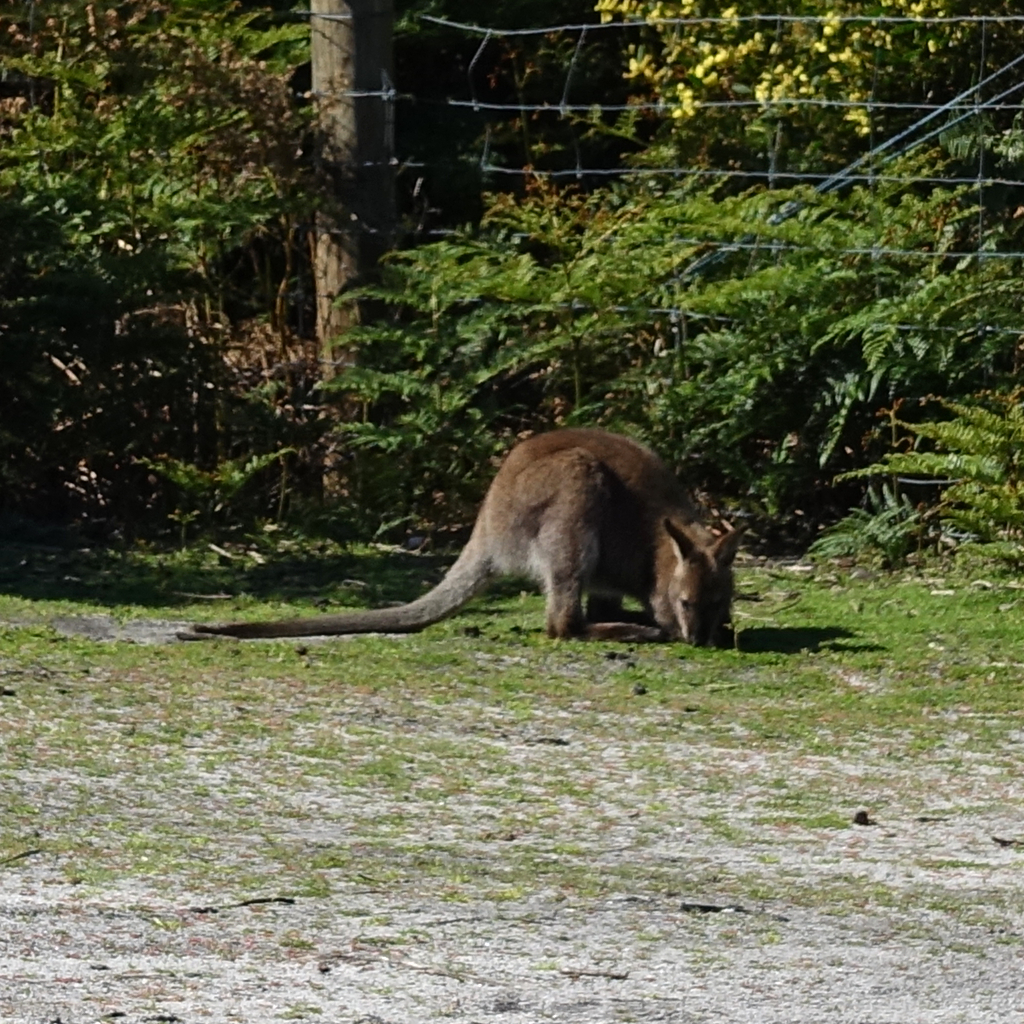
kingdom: Animalia
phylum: Chordata
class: Mammalia
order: Diprotodontia
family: Macropodidae
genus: Notamacropus
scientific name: Notamacropus rufogriseus
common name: Red-necked wallaby
